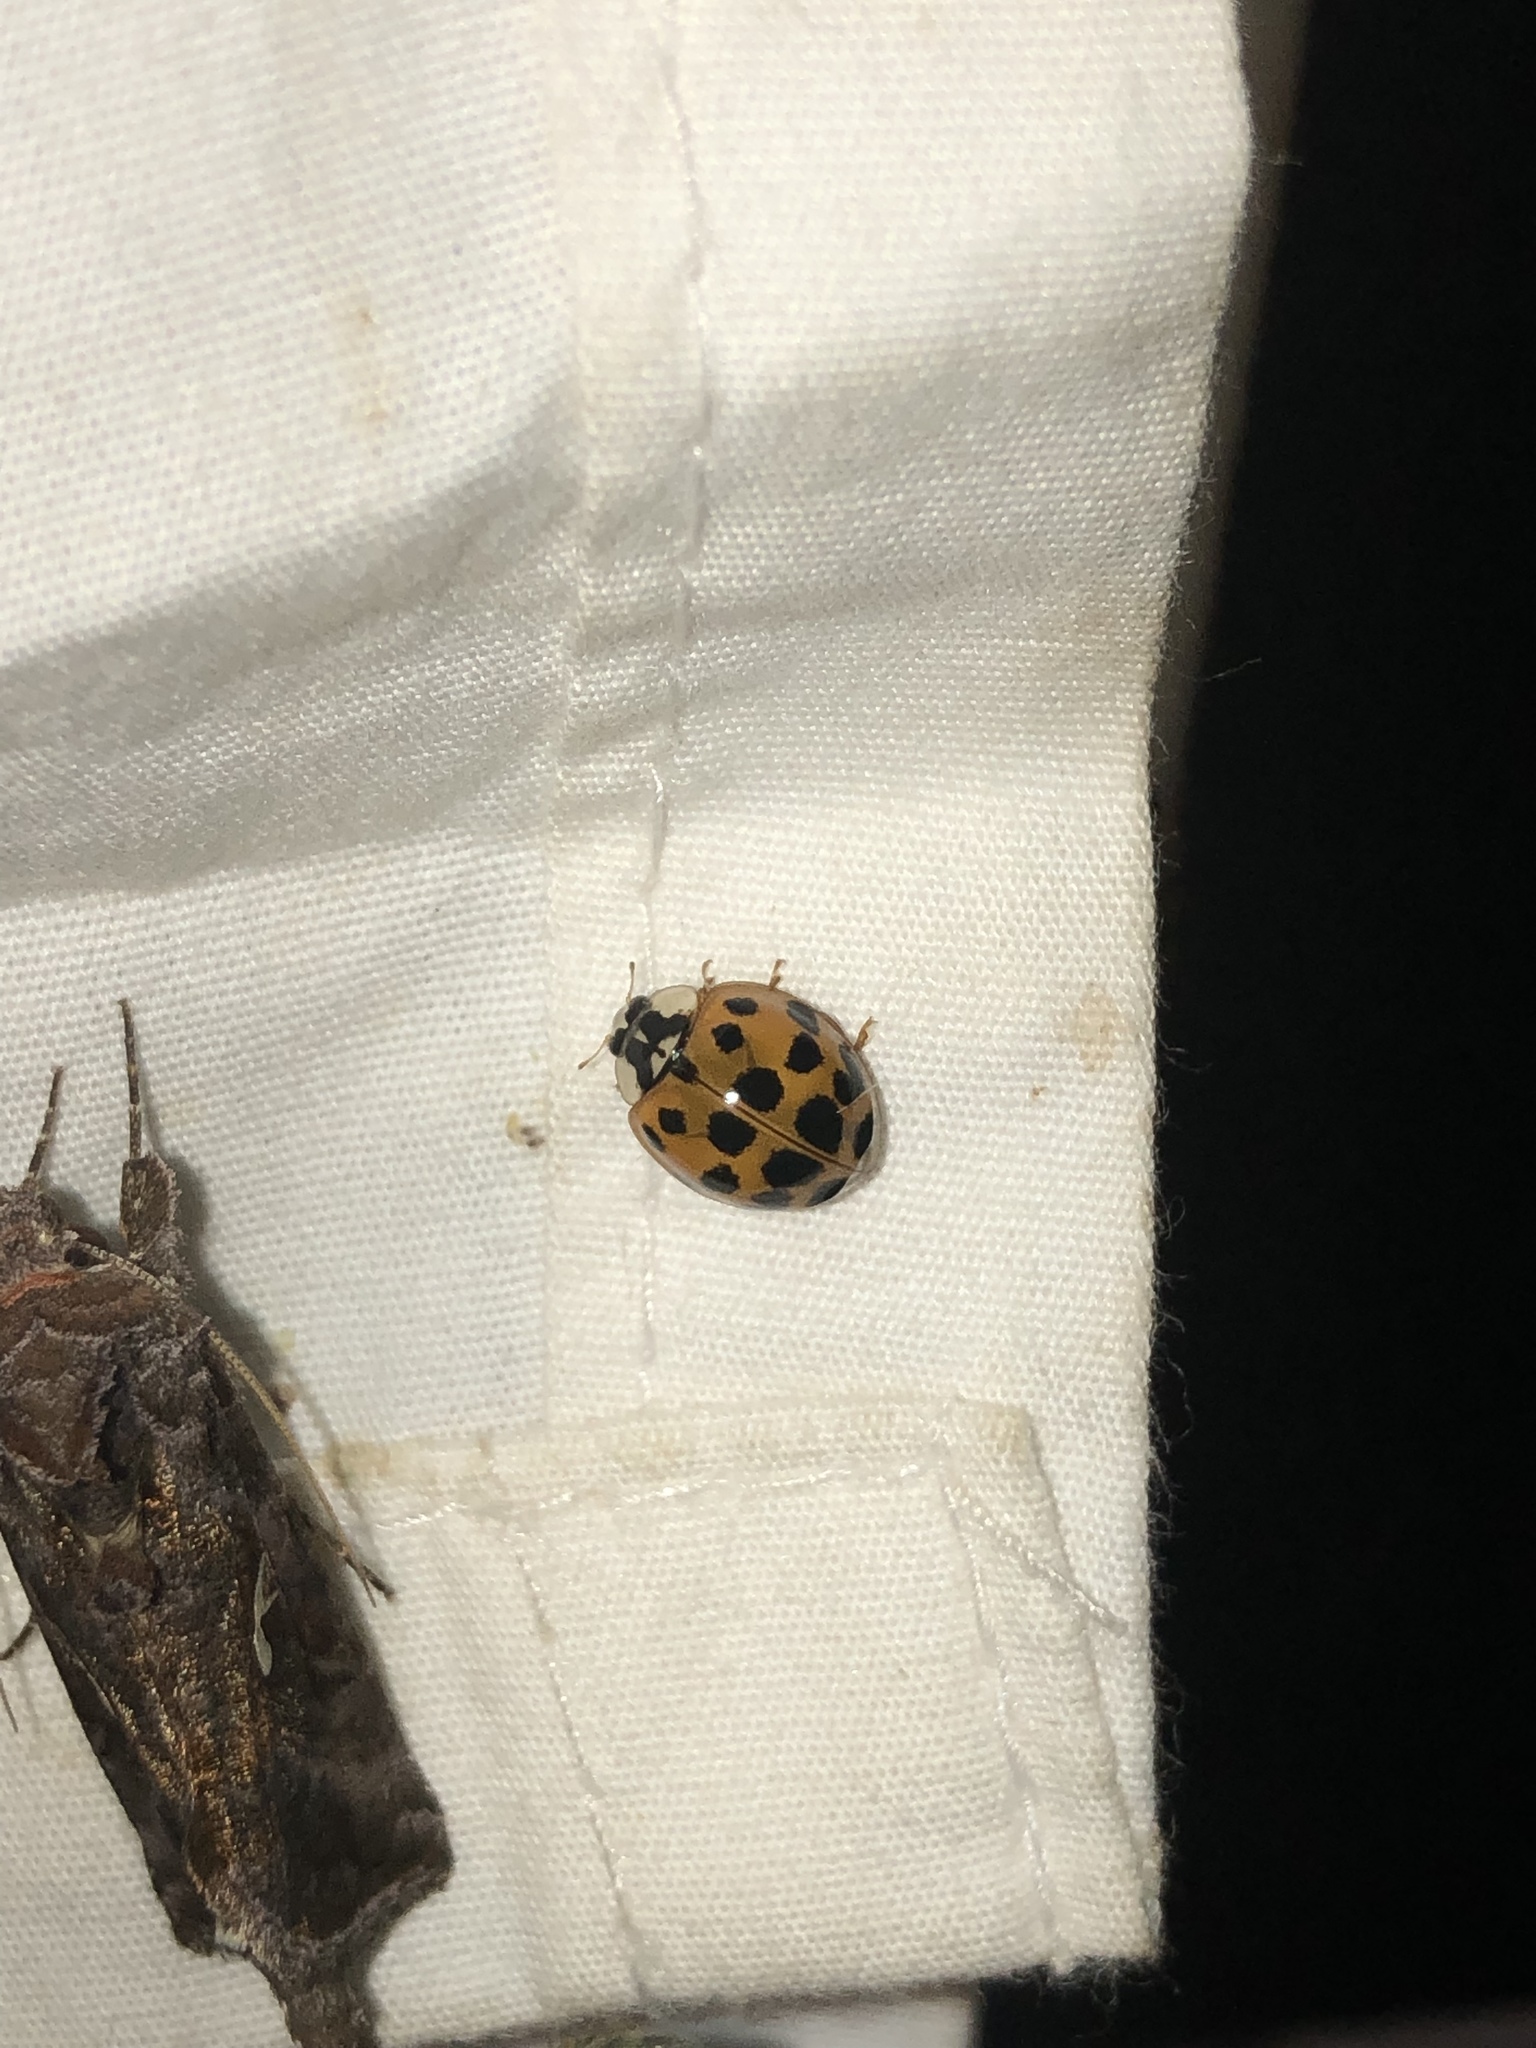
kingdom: Animalia
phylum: Arthropoda
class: Insecta
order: Coleoptera
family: Coccinellidae
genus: Harmonia
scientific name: Harmonia axyridis
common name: Harlequin ladybird
